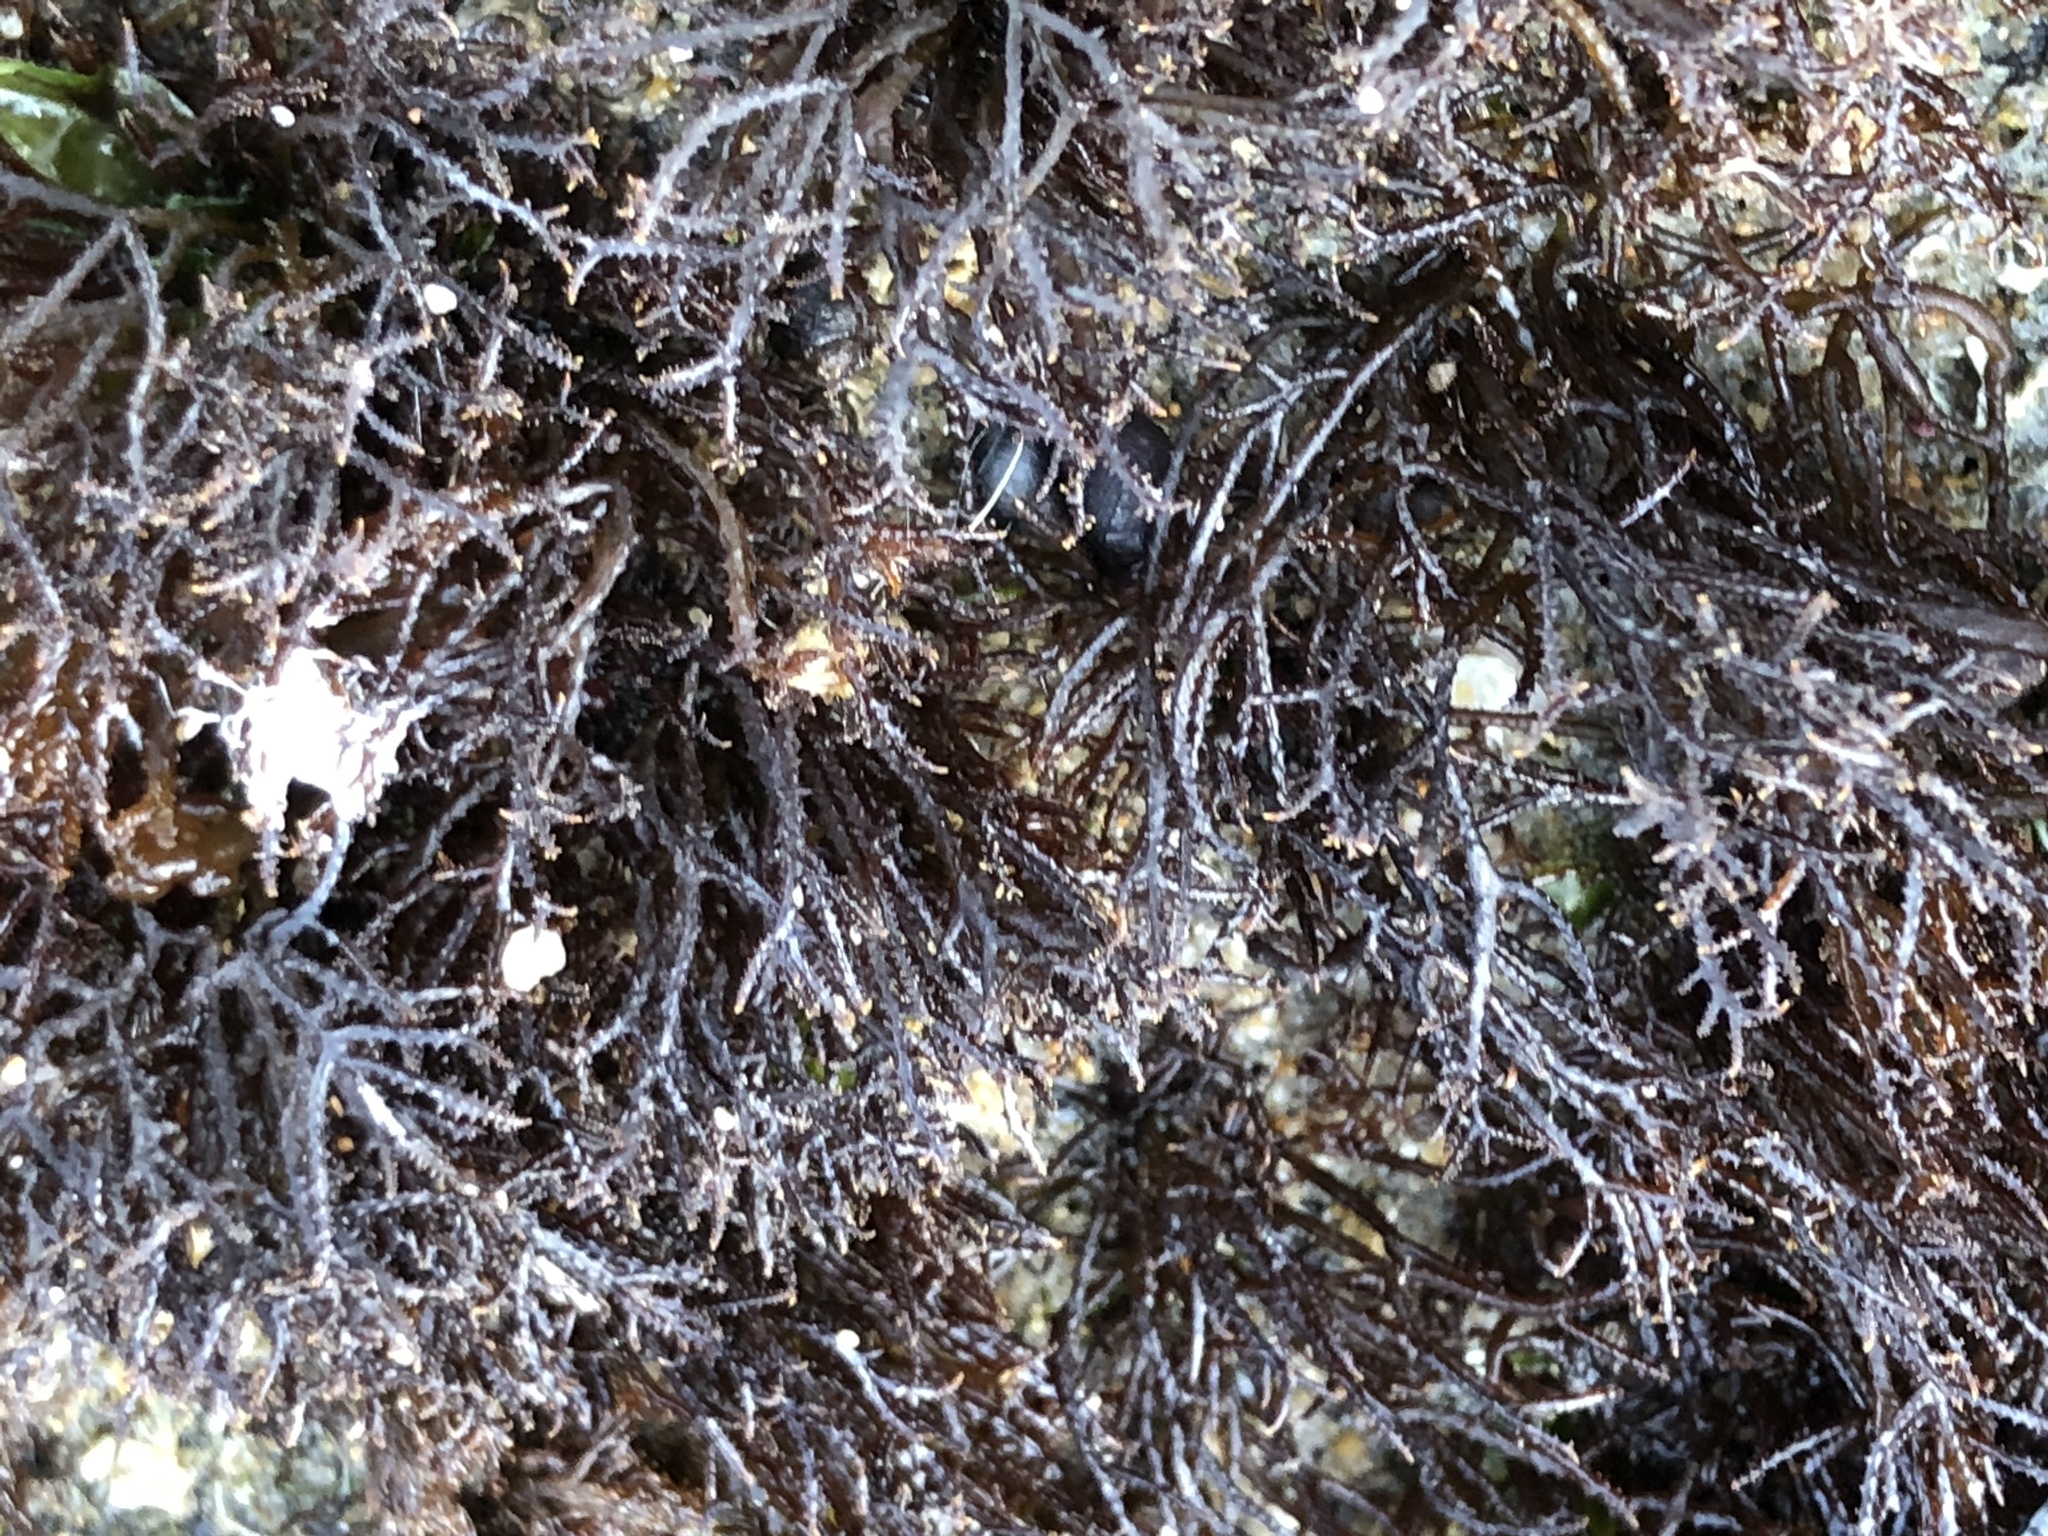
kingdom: Plantae
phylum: Rhodophyta
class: Florideophyceae
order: Gigartinales
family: Endocladiaceae
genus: Endocladia
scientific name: Endocladia muricata
